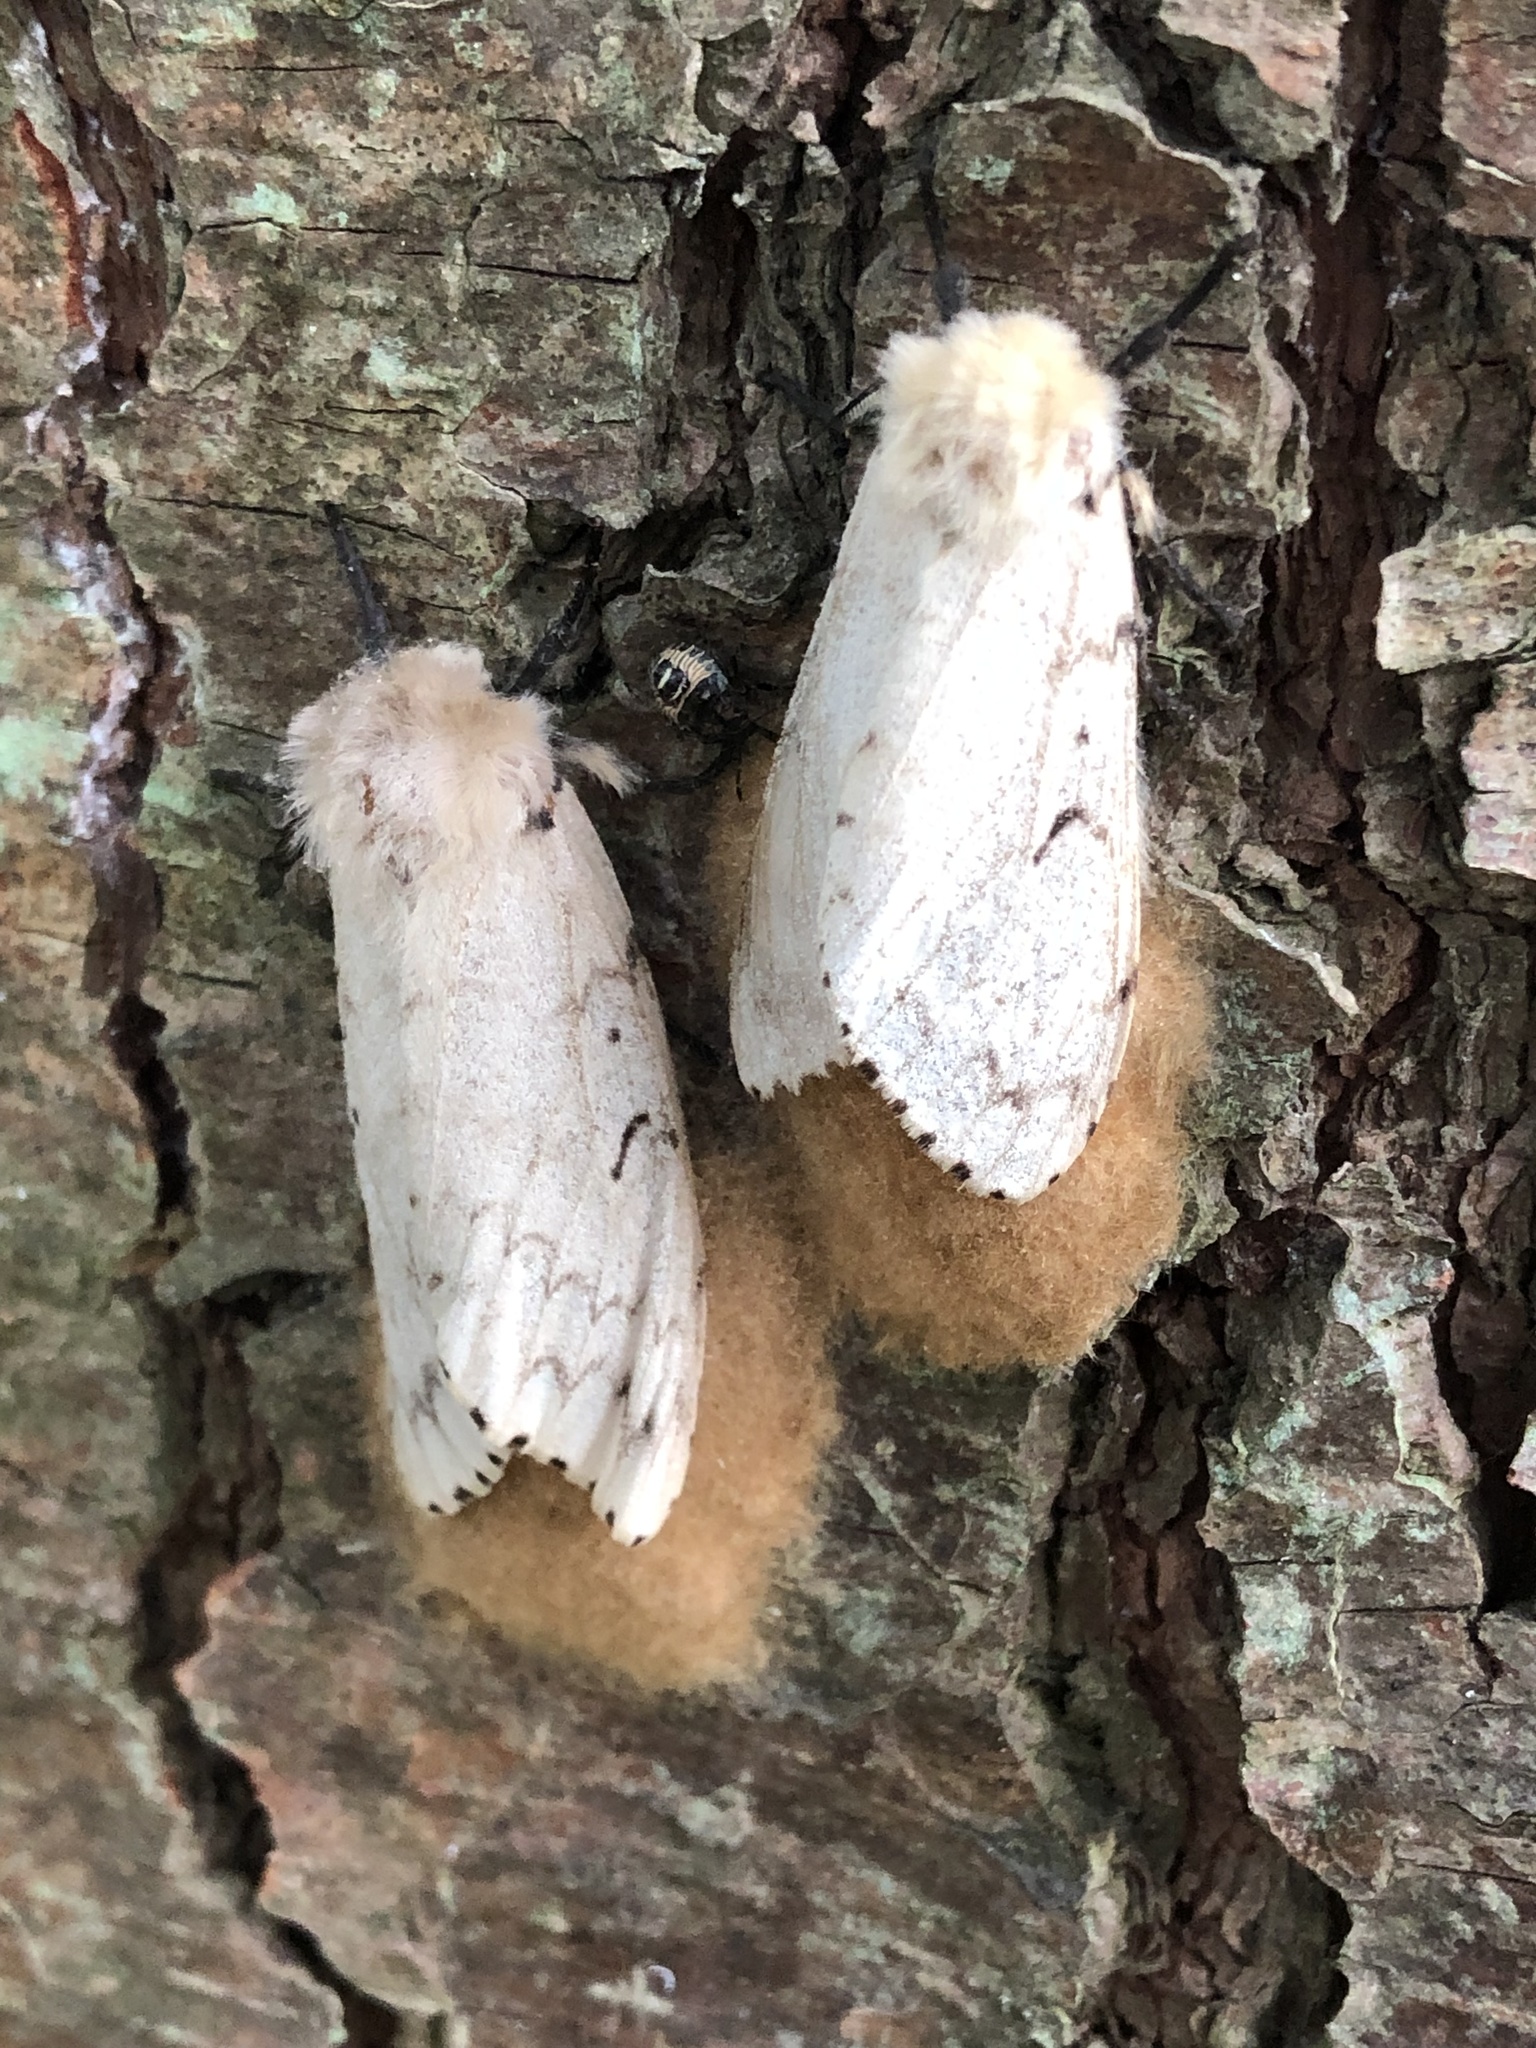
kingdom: Animalia
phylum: Arthropoda
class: Insecta
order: Lepidoptera
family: Erebidae
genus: Lymantria
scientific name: Lymantria dispar
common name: Gypsy moth
